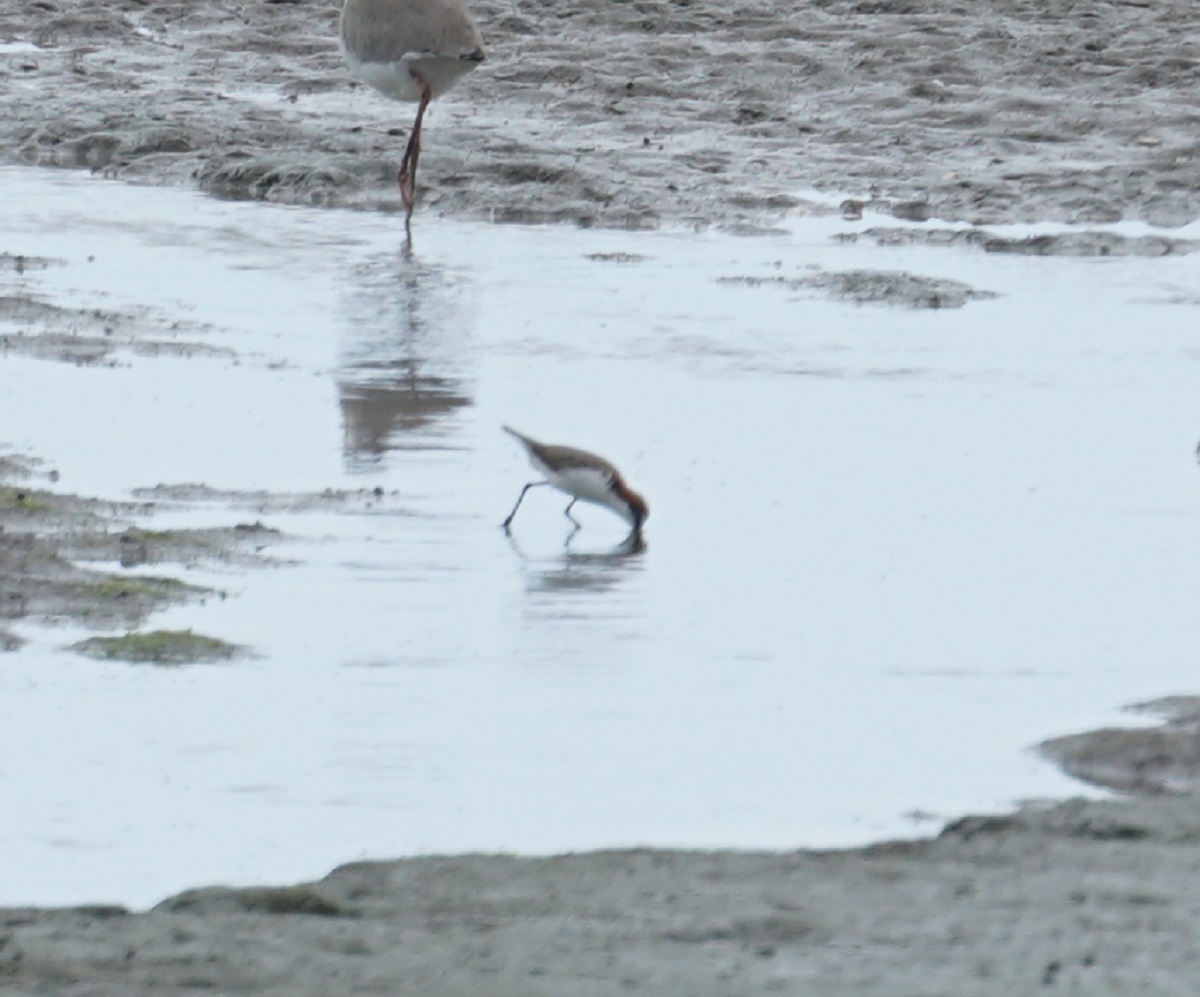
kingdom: Animalia
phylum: Chordata
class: Aves
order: Charadriiformes
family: Charadriidae
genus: Anarhynchus
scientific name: Anarhynchus
